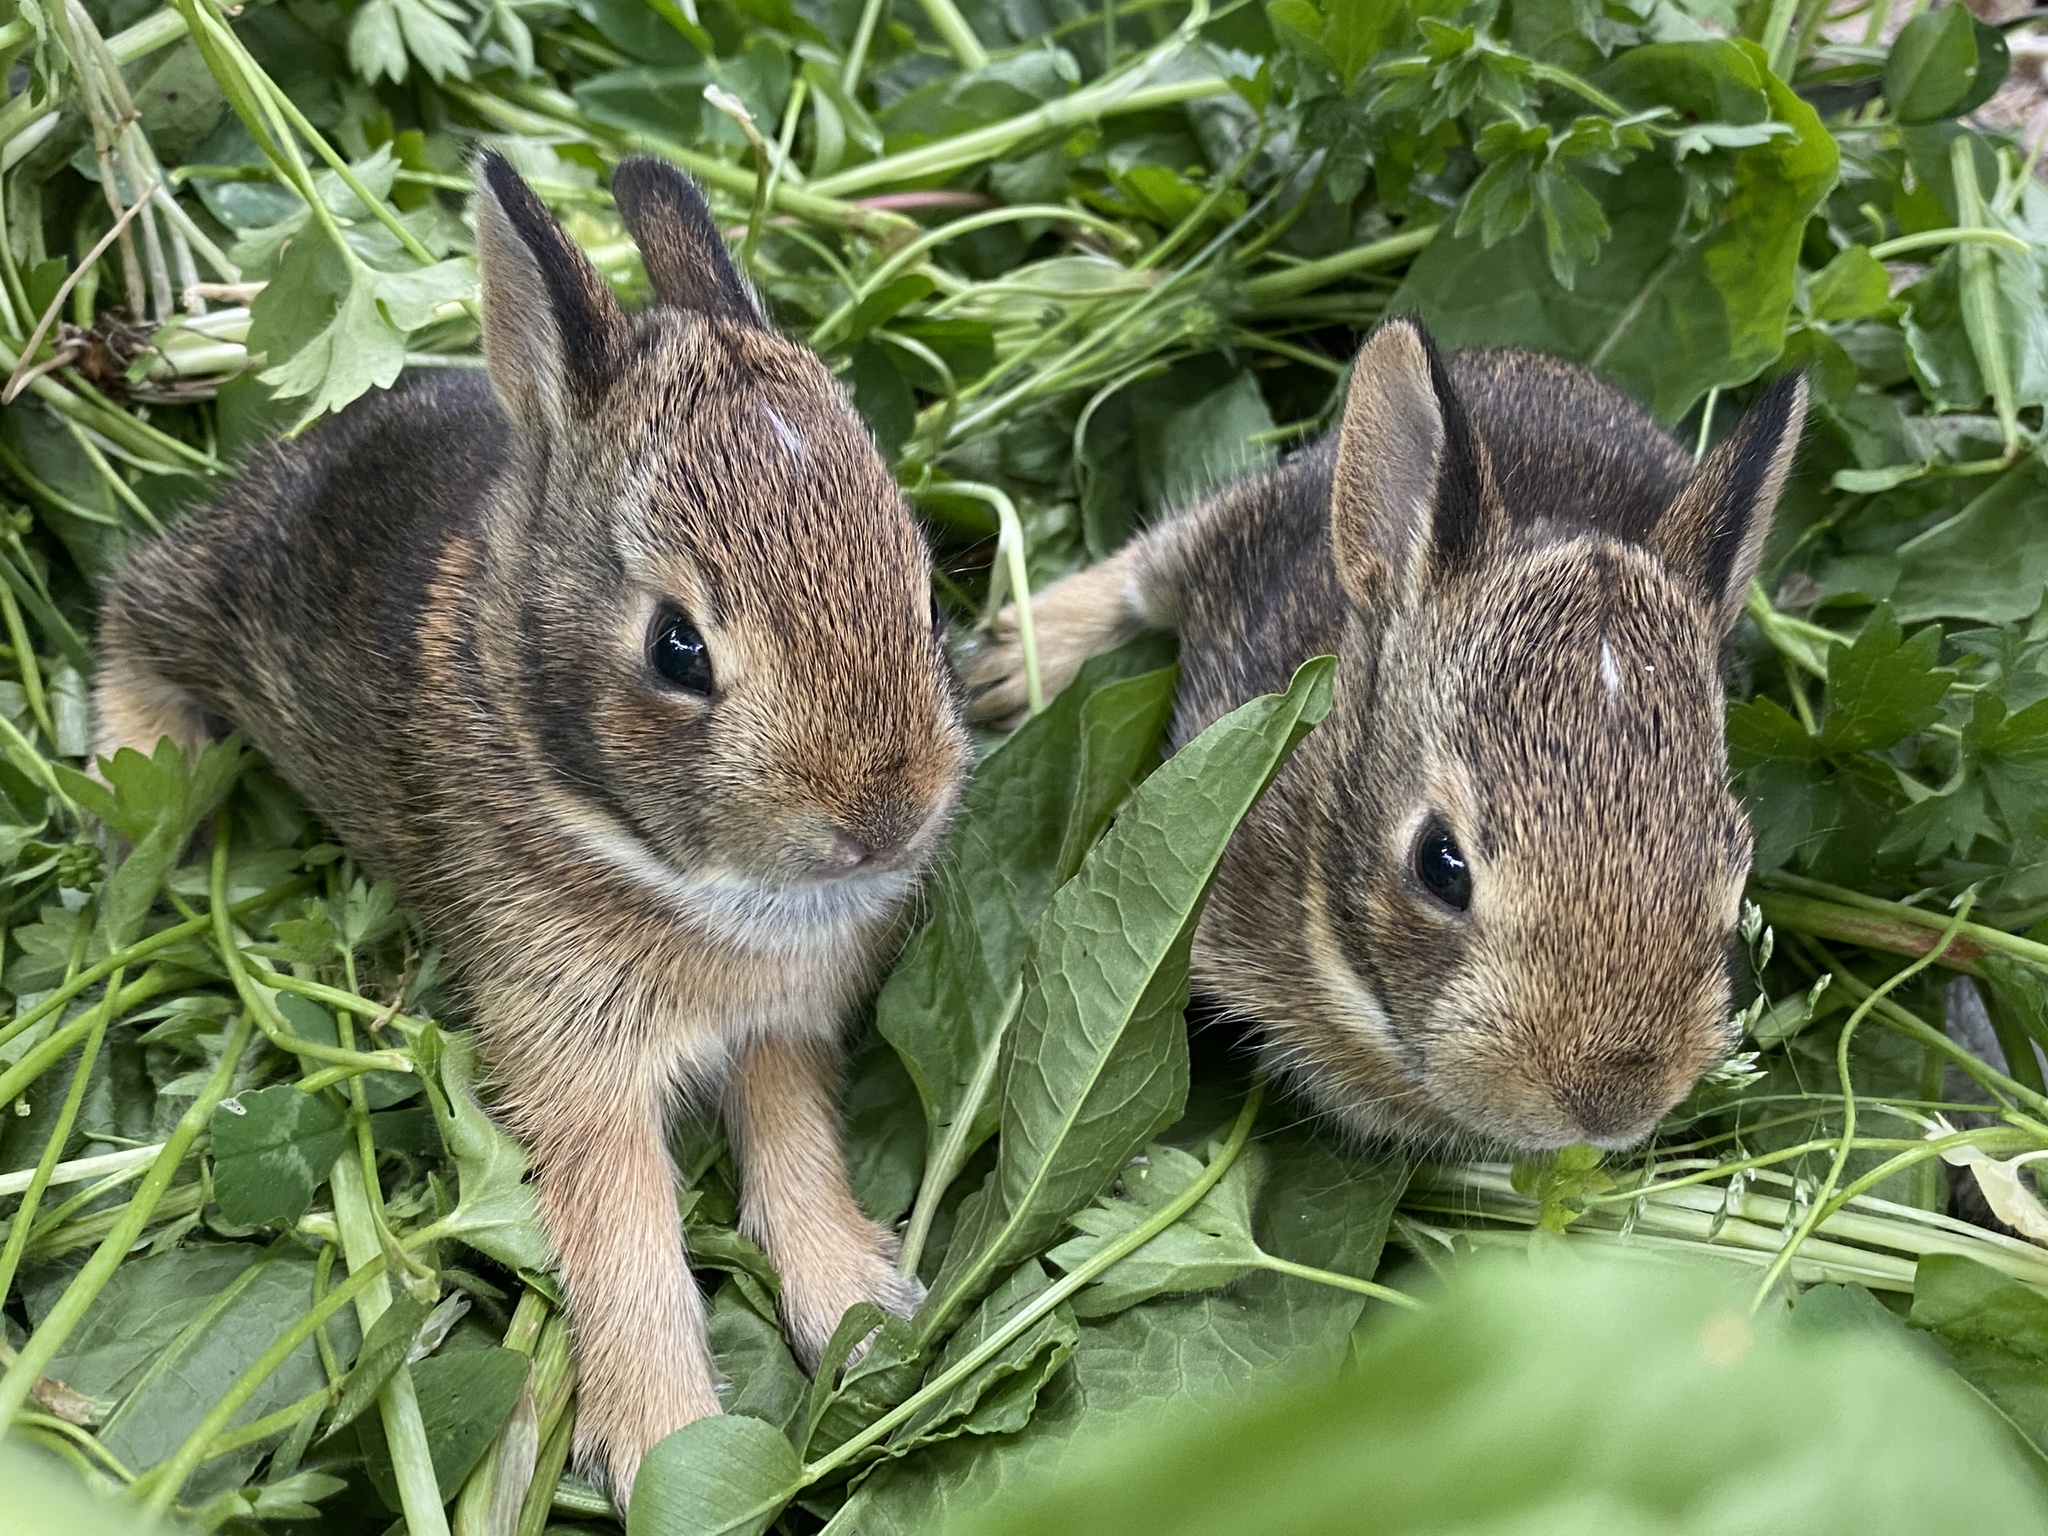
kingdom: Animalia
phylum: Chordata
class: Mammalia
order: Lagomorpha
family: Leporidae
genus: Sylvilagus
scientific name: Sylvilagus floridanus
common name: Eastern cottontail
